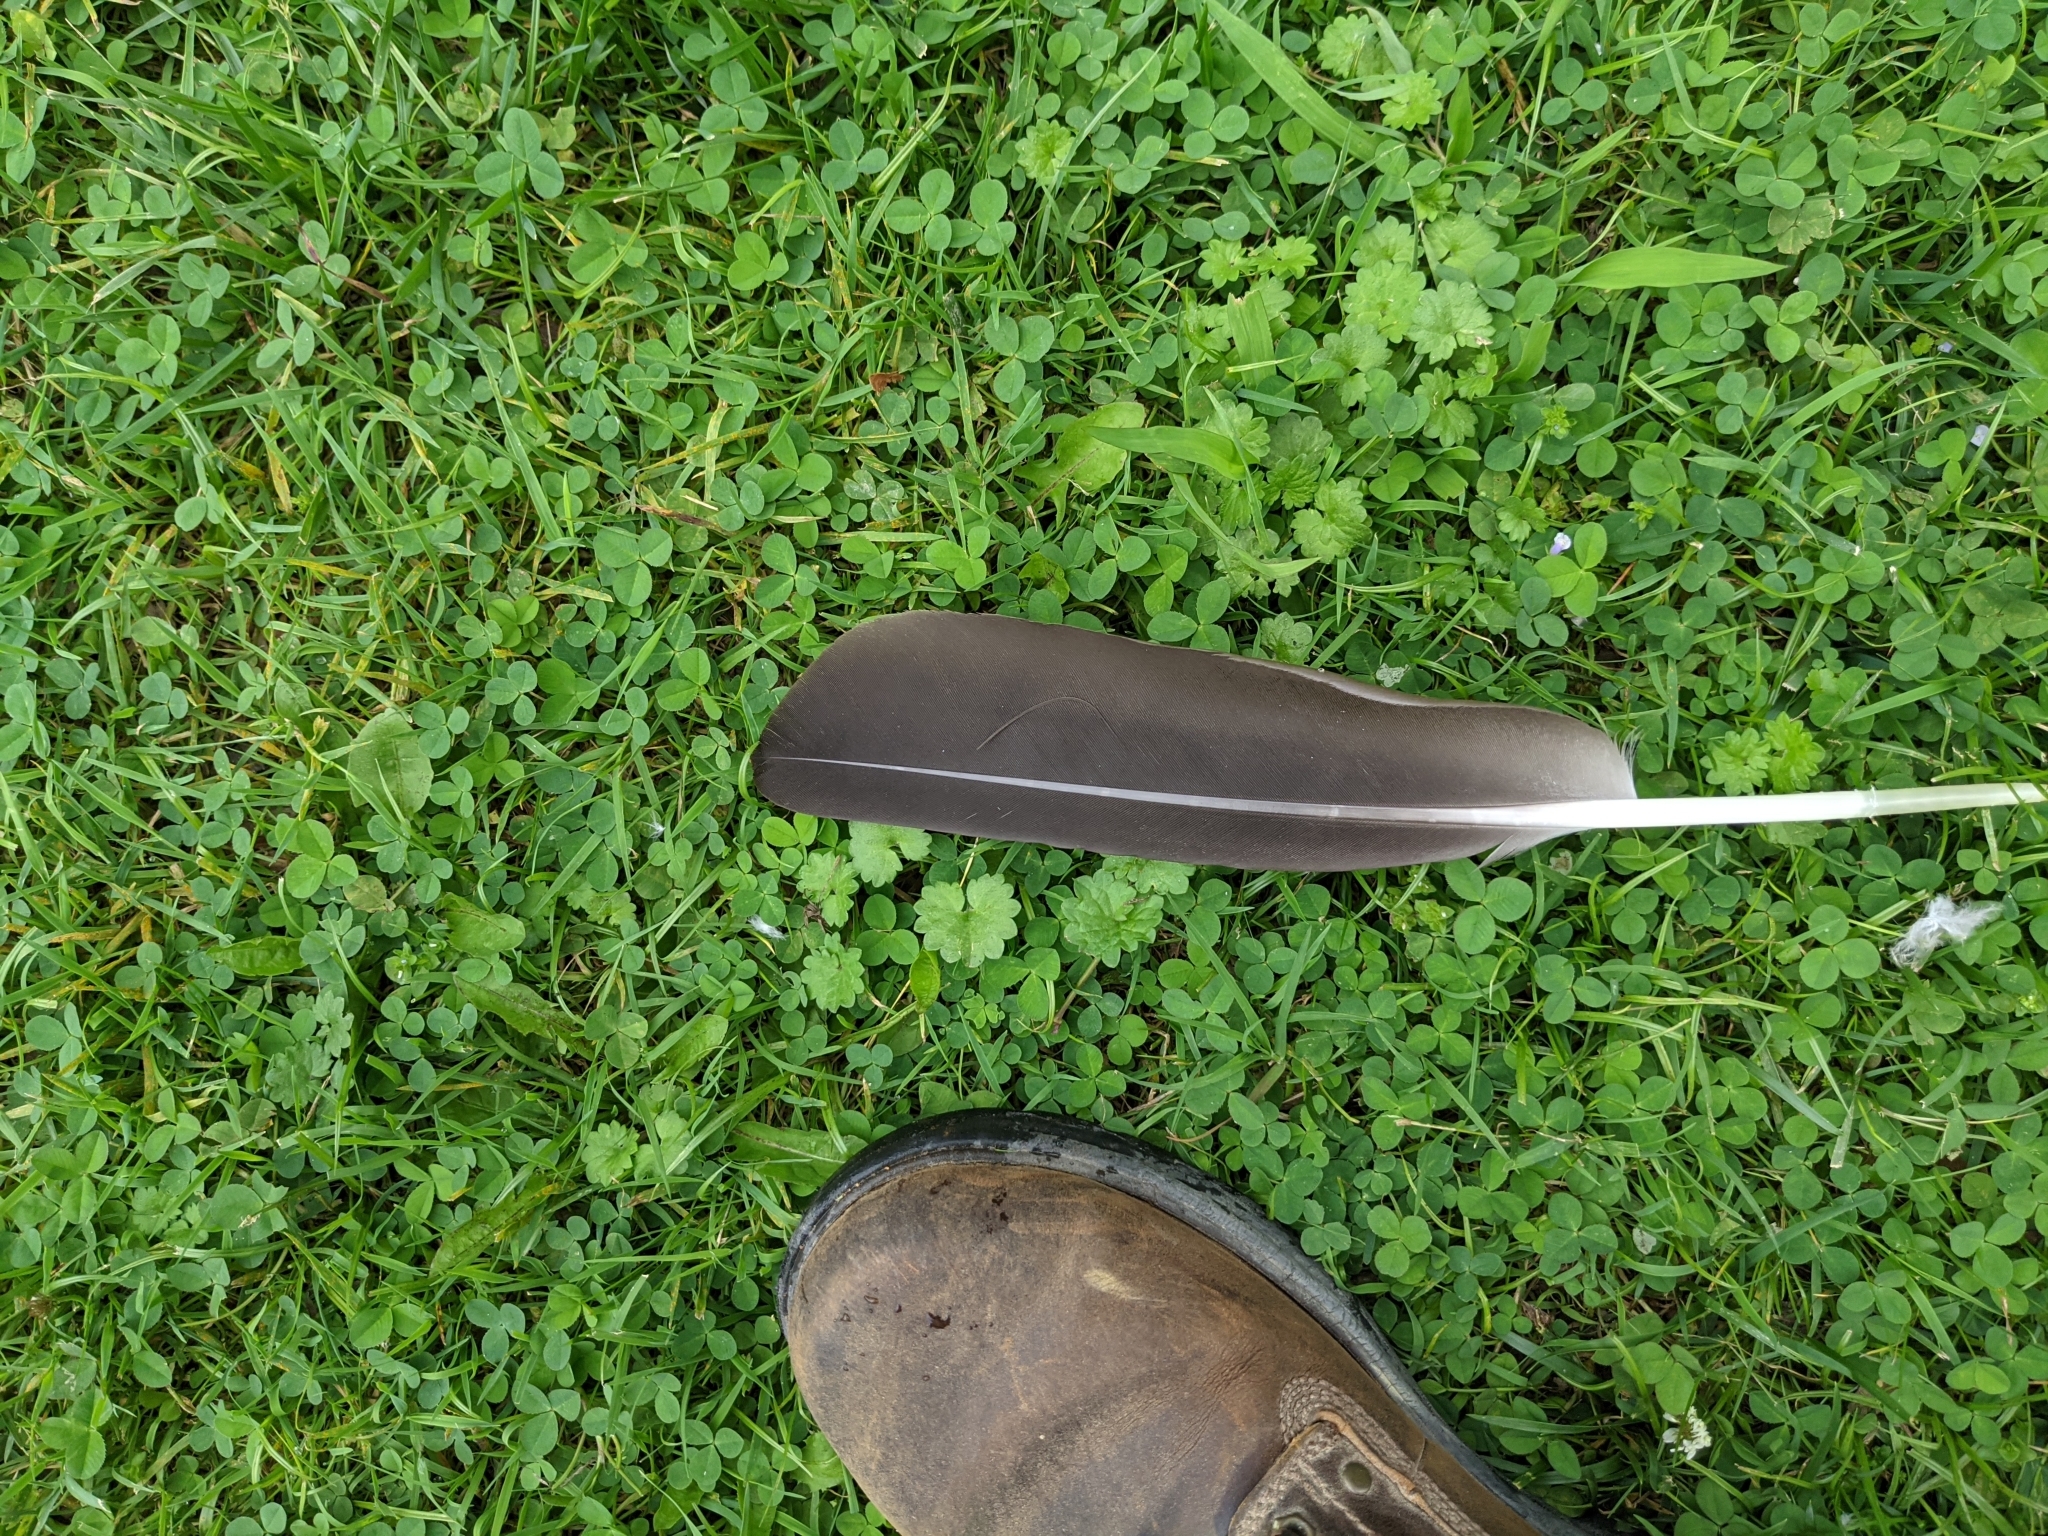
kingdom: Animalia
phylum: Chordata
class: Aves
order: Anseriformes
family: Anatidae
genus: Branta
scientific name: Branta canadensis
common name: Canada goose
